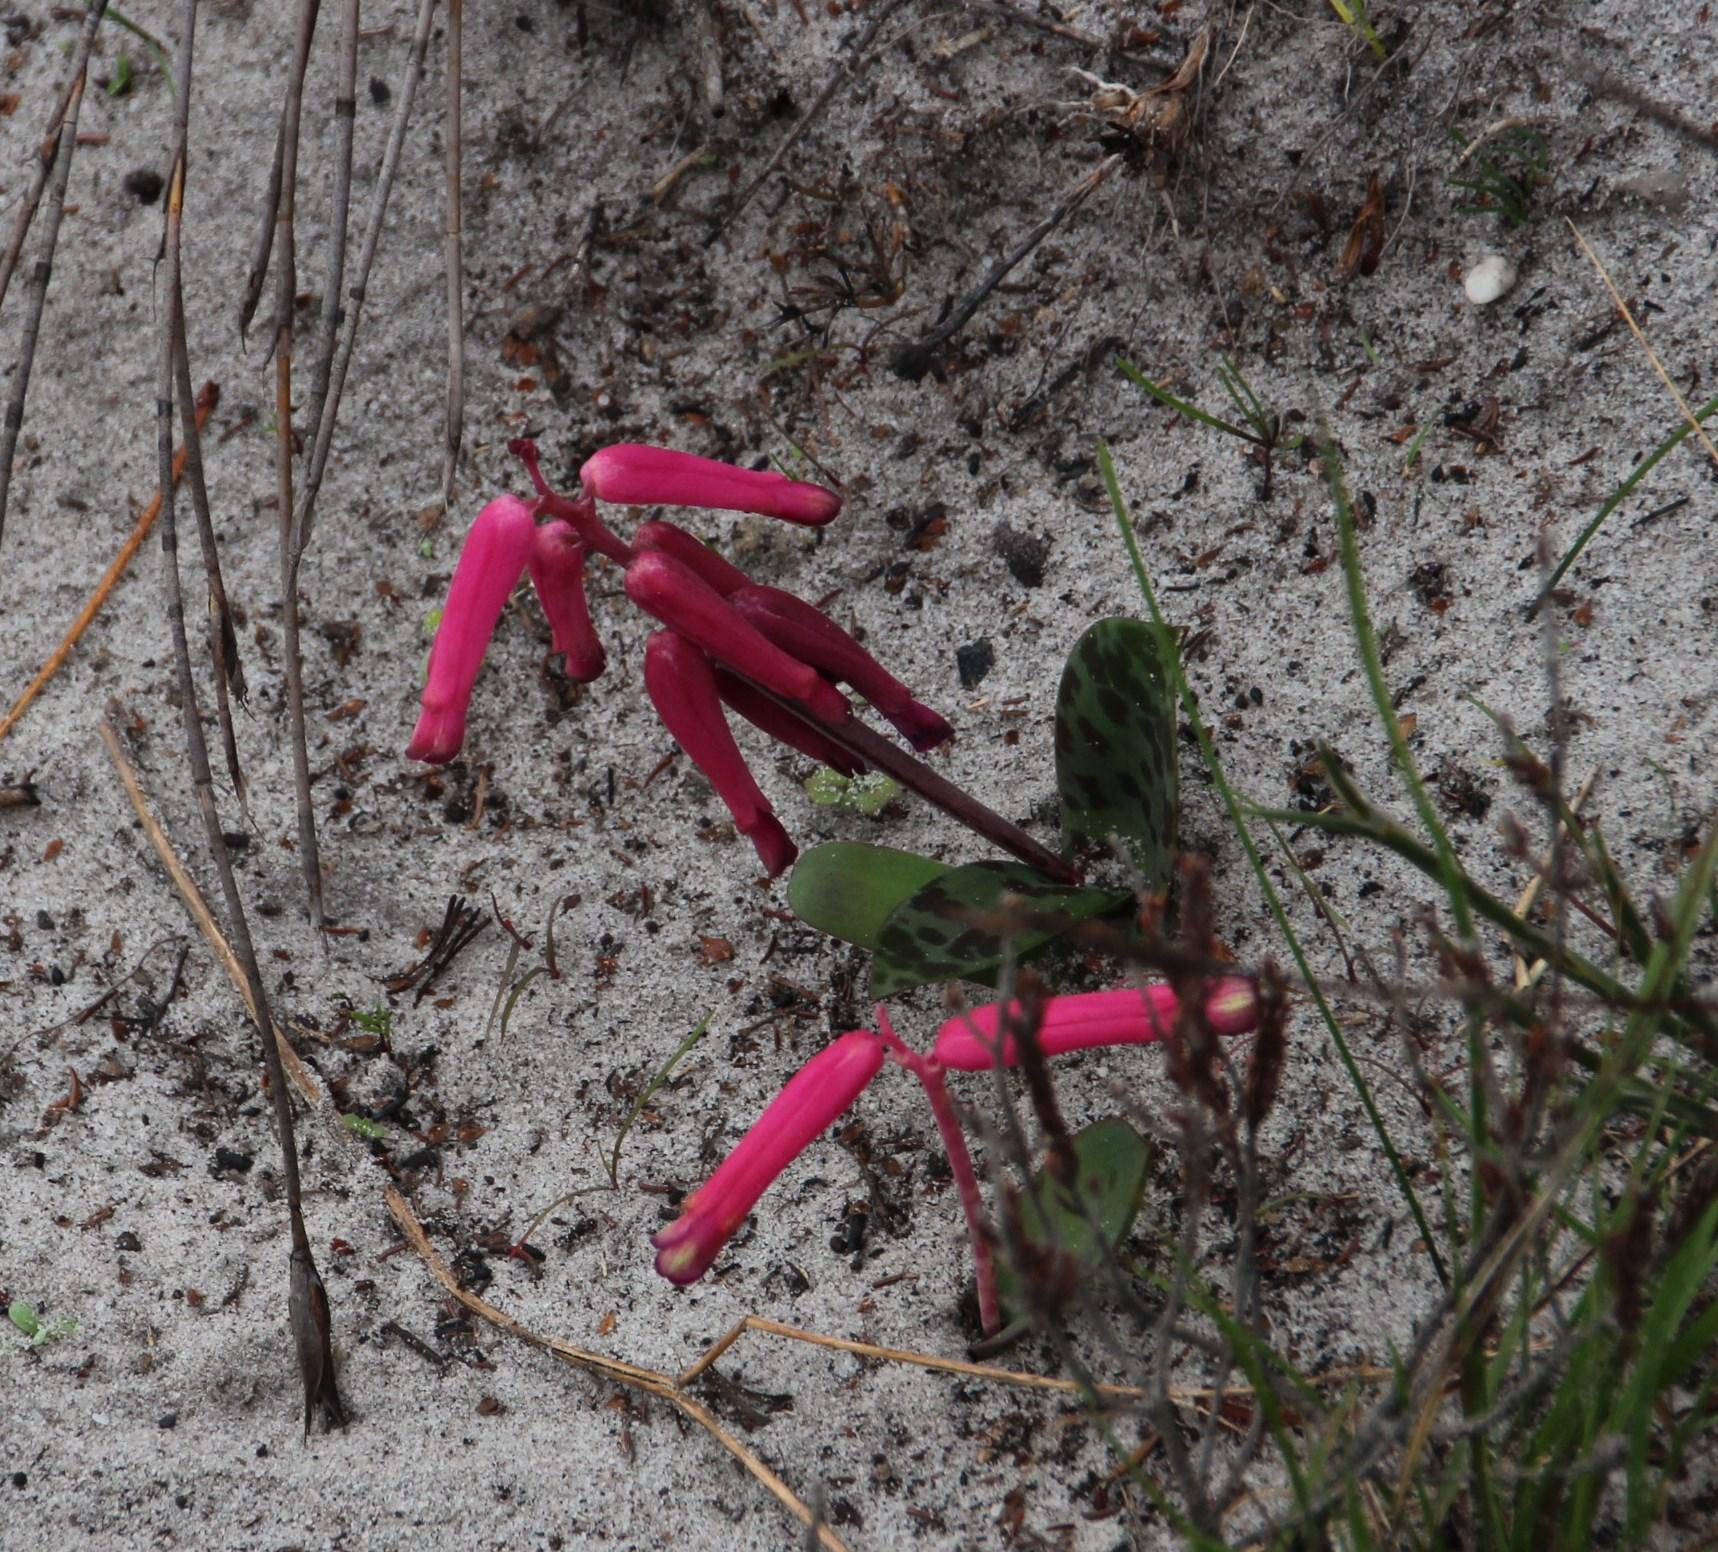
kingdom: Plantae
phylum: Tracheophyta
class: Liliopsida
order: Asparagales
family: Asparagaceae
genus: Lachenalia
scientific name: Lachenalia punctata
